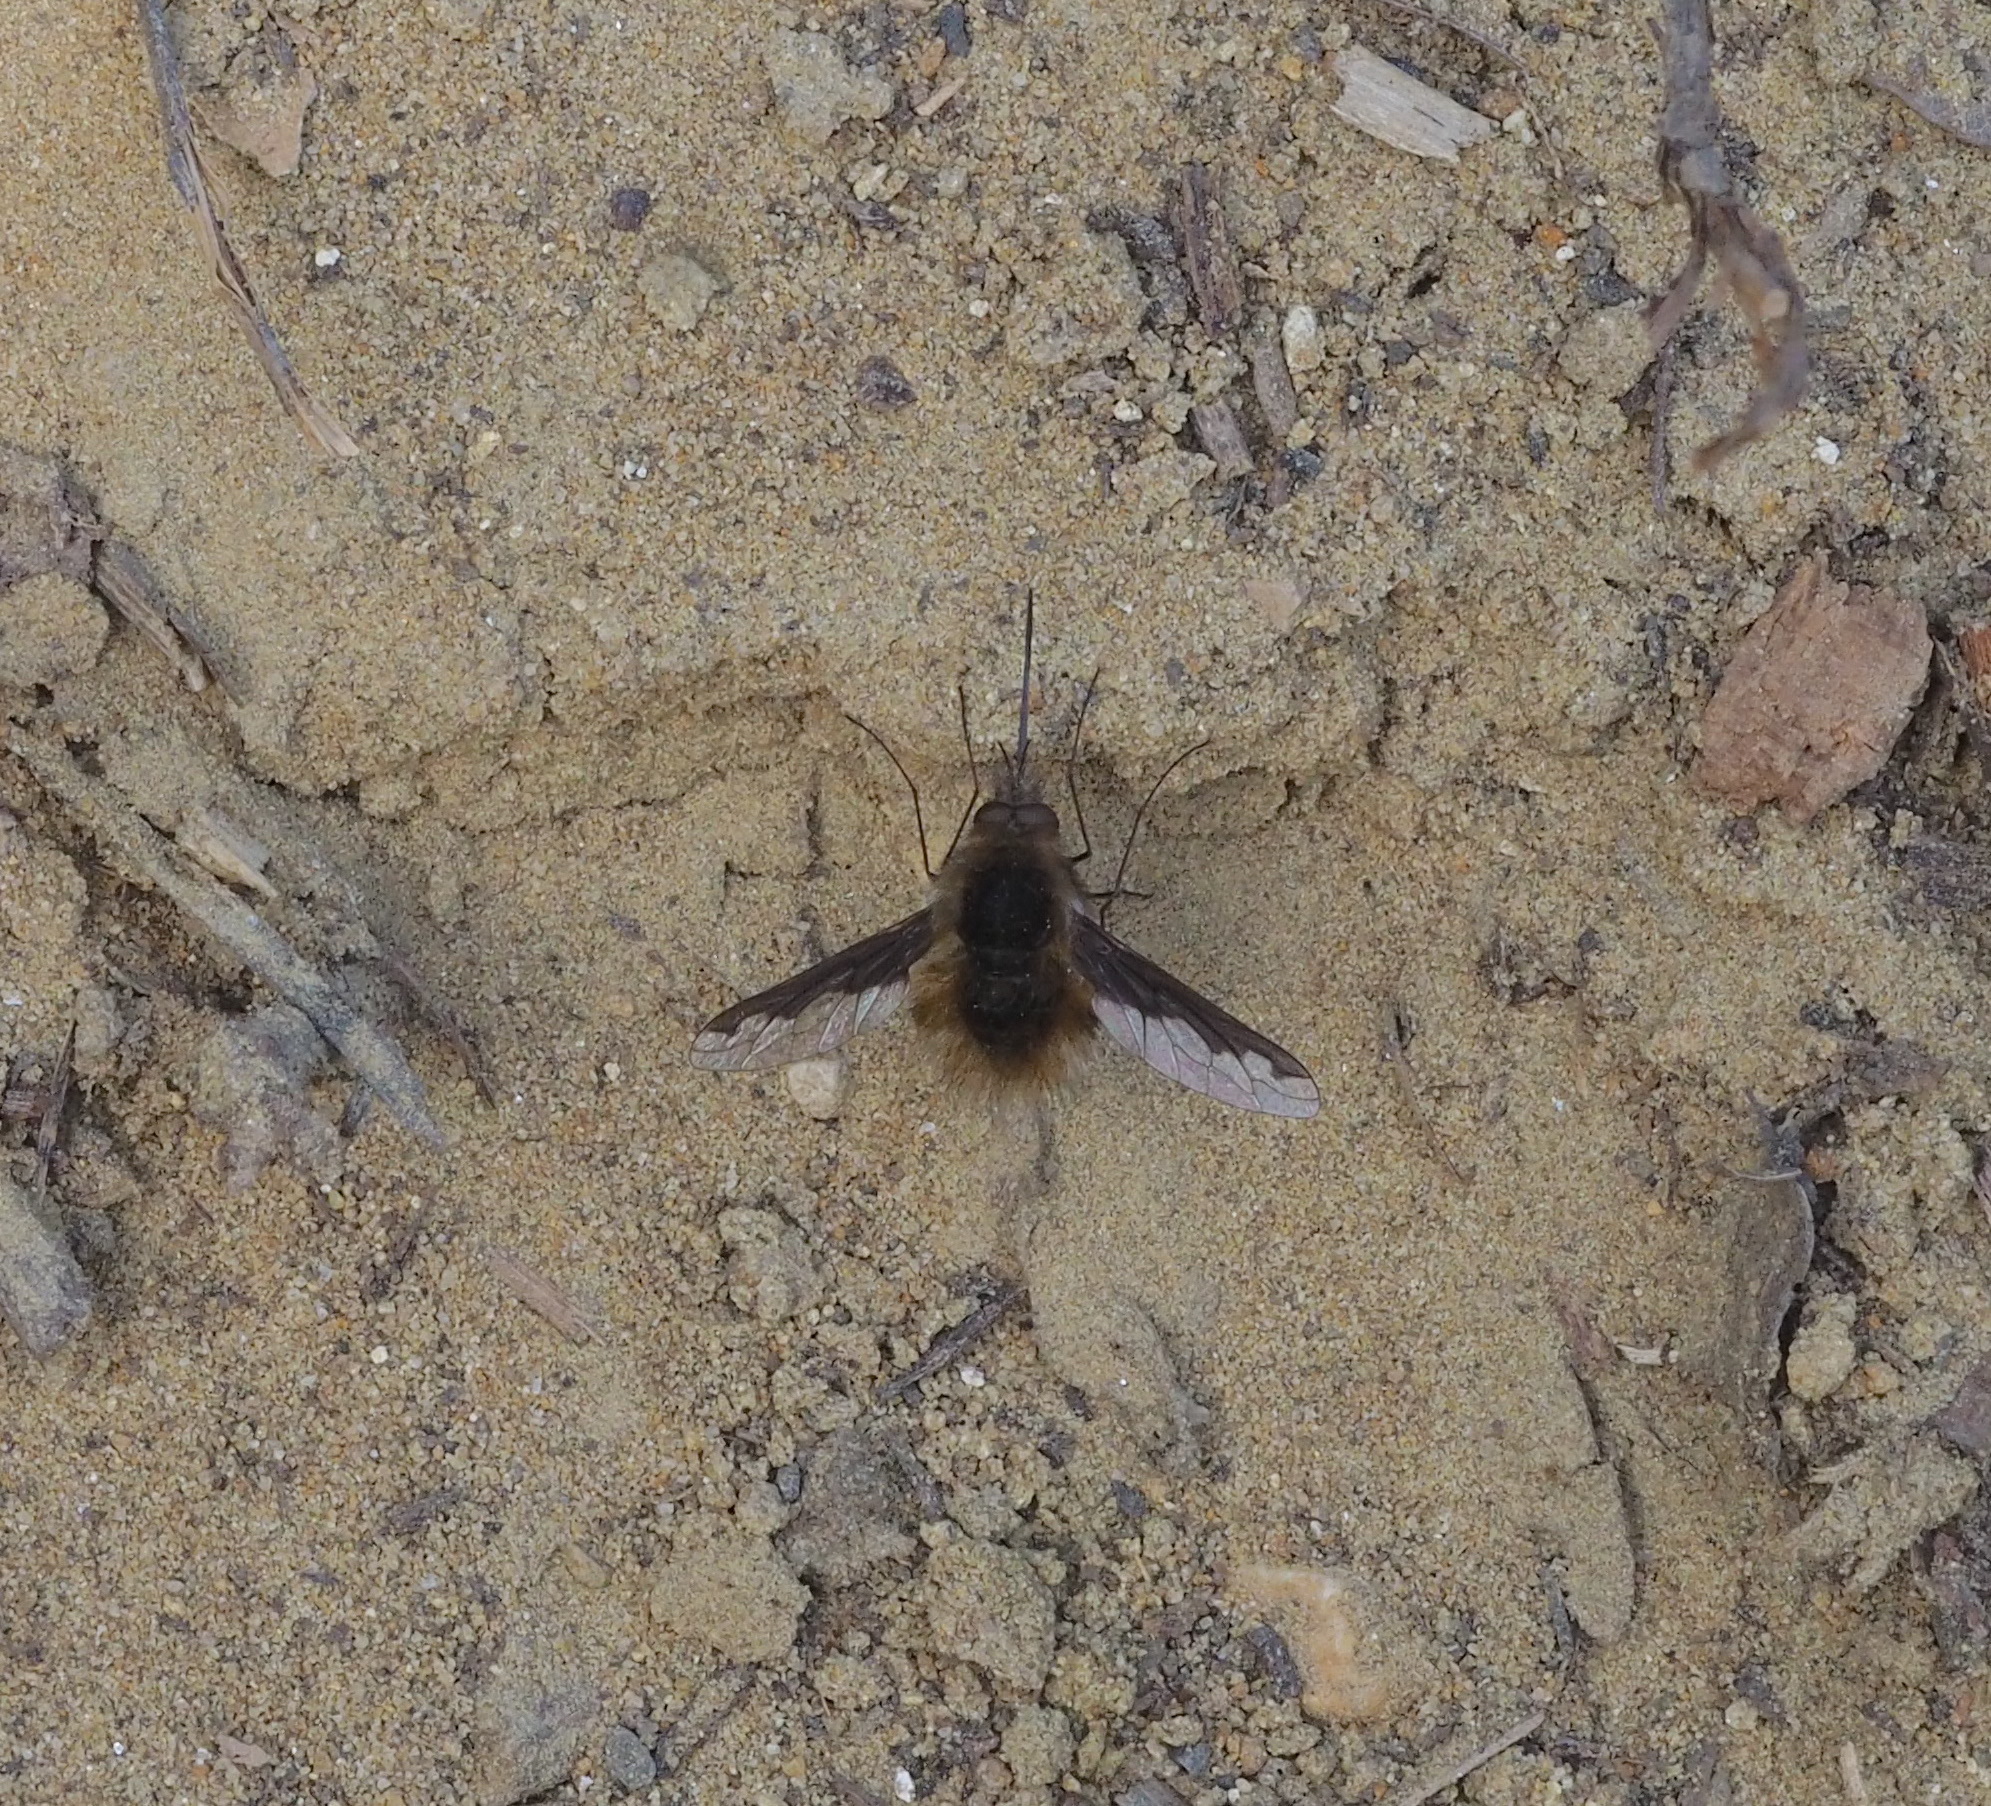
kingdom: Animalia
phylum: Arthropoda
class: Insecta
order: Diptera
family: Bombyliidae
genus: Bombylius
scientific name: Bombylius major
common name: Bee fly
